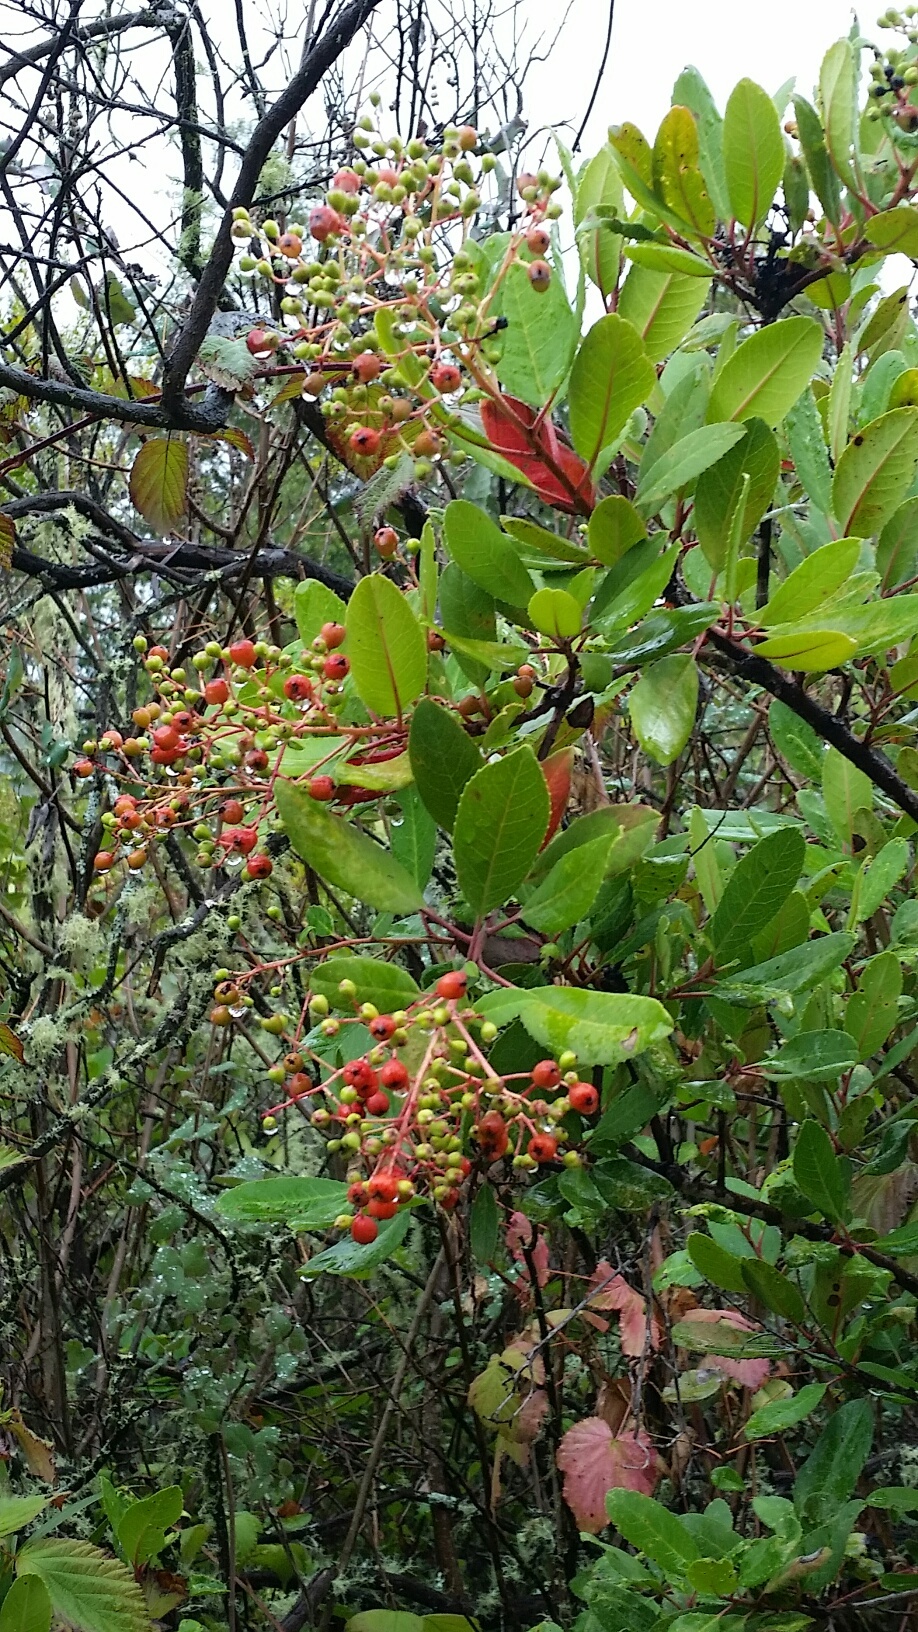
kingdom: Plantae
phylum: Tracheophyta
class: Magnoliopsida
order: Rosales
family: Rosaceae
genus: Heteromeles
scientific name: Heteromeles arbutifolia
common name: California-holly
